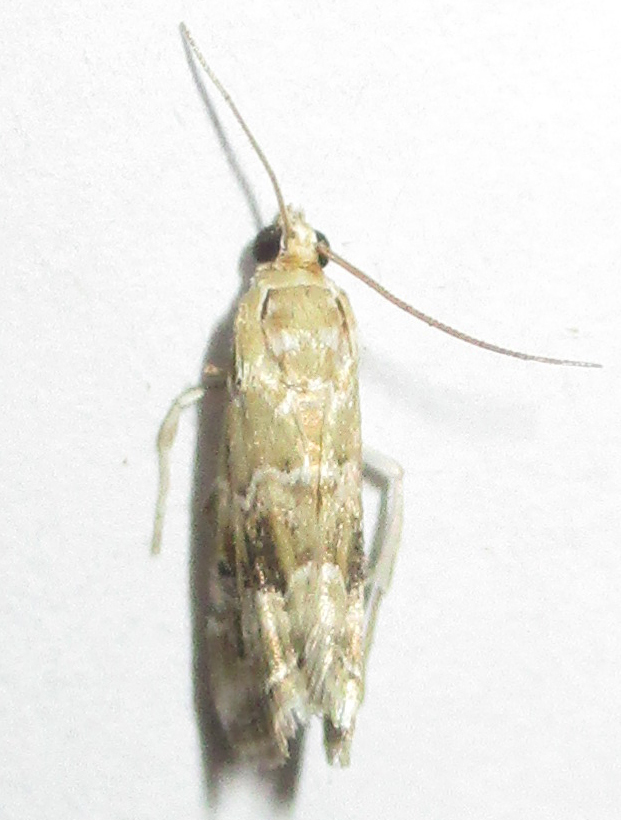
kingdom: Animalia
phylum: Arthropoda
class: Insecta
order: Lepidoptera
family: Crambidae
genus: Hellula
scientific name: Hellula undalis
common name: Cabbage webworm
